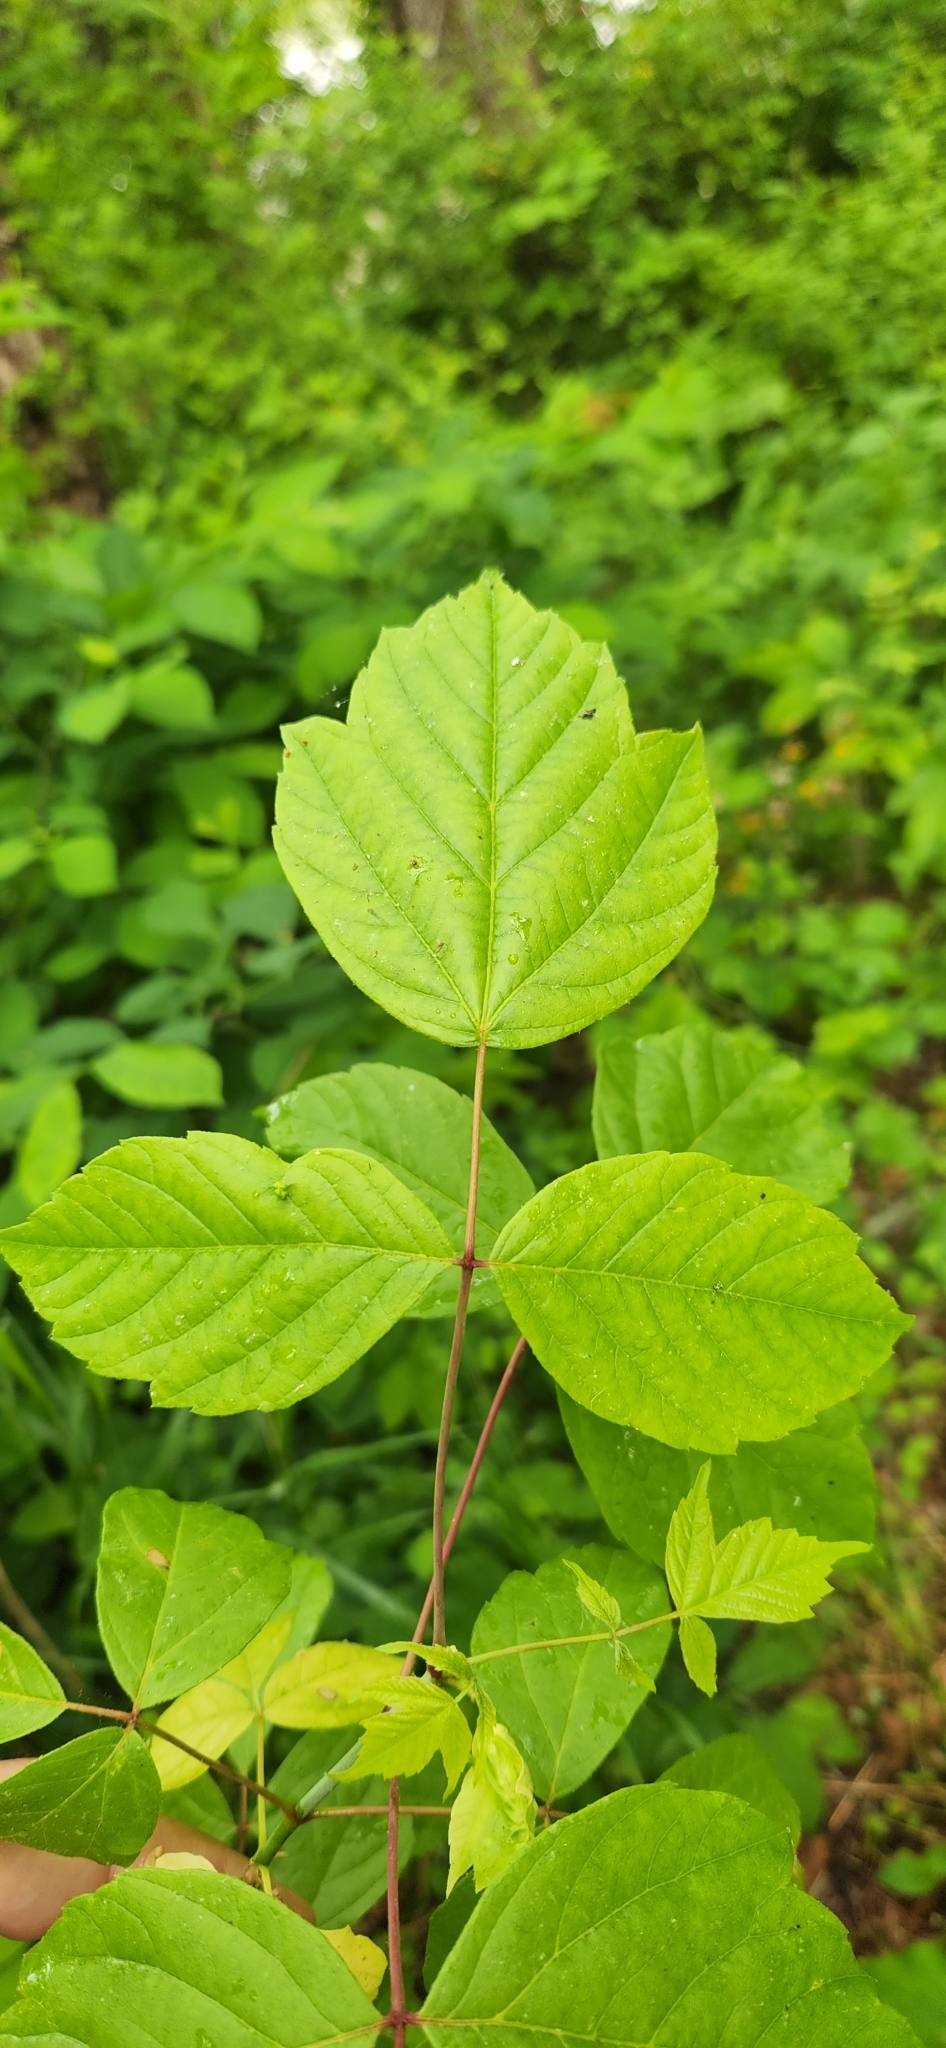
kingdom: Plantae
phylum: Tracheophyta
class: Magnoliopsida
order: Sapindales
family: Sapindaceae
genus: Acer
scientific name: Acer negundo
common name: Ashleaf maple
